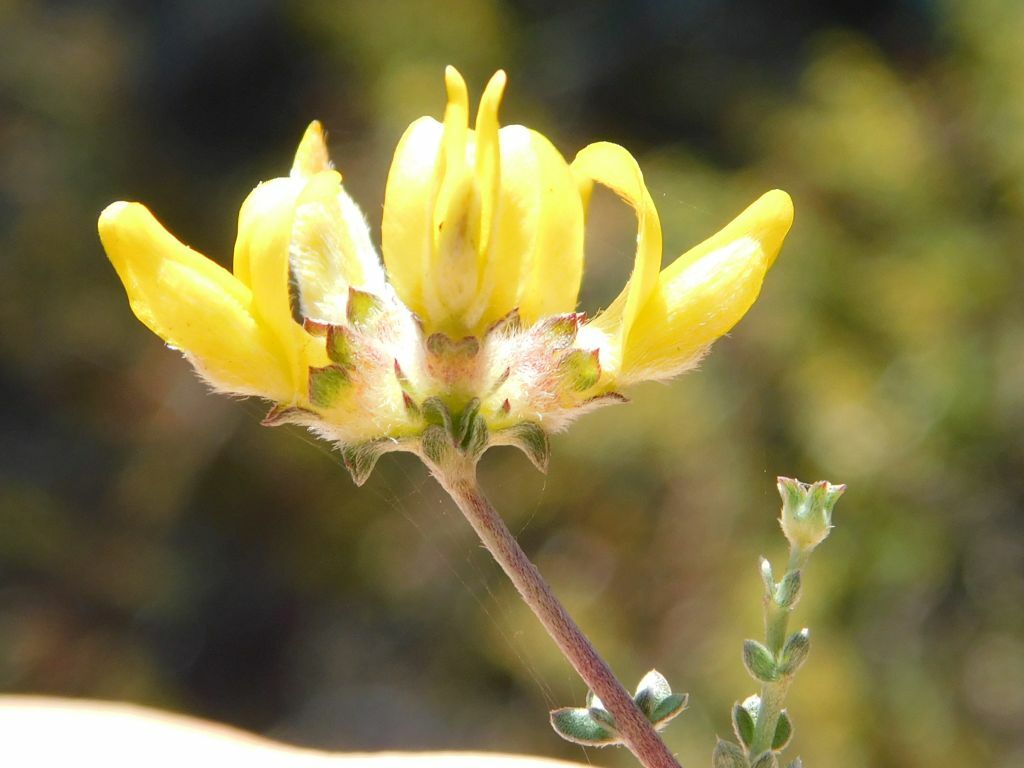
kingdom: Plantae
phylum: Tracheophyta
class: Magnoliopsida
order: Fabales
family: Fabaceae
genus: Aspalathus
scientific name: Aspalathus tridentata
